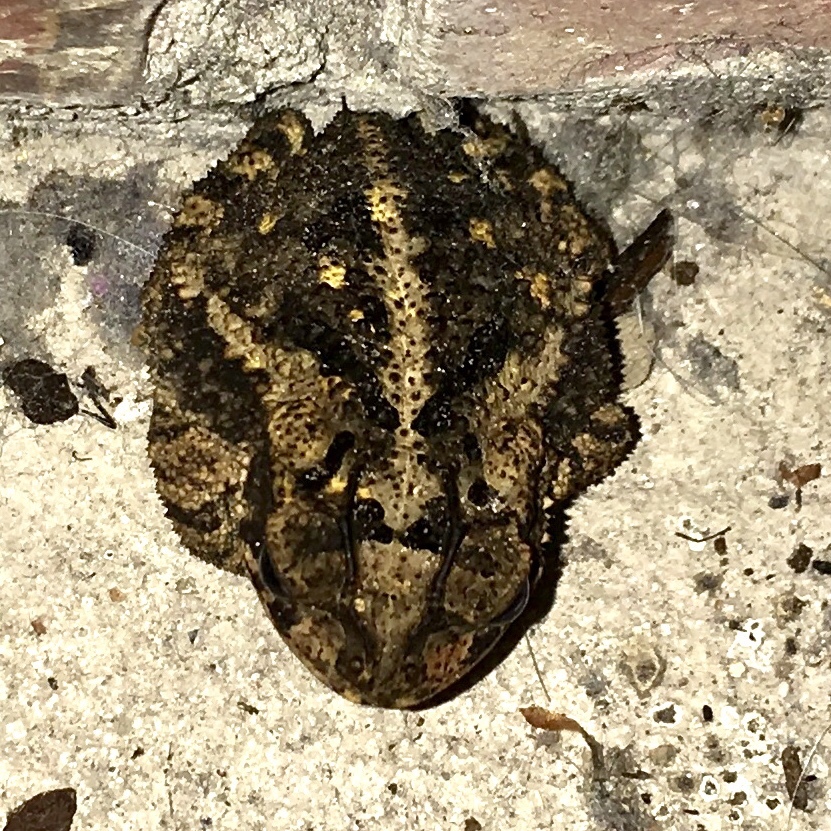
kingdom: Animalia
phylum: Chordata
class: Amphibia
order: Anura
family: Bufonidae
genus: Incilius
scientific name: Incilius nebulifer
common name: Gulf coast toad
